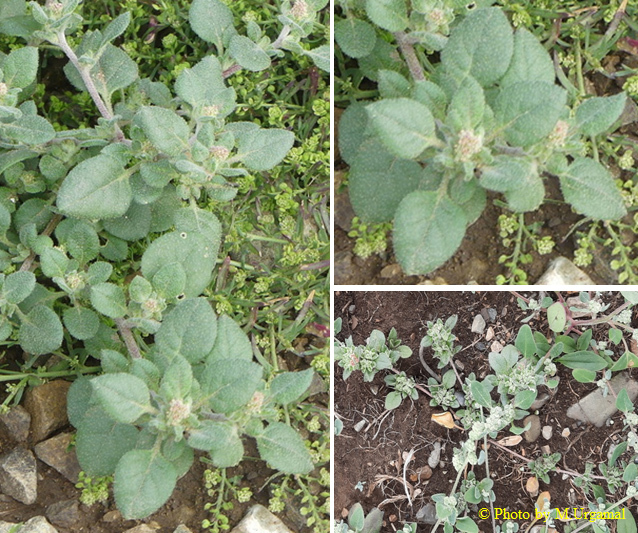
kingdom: Plantae
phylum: Tracheophyta
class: Magnoliopsida
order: Caryophyllales
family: Amaranthaceae
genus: Axyris
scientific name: Axyris prostrata
